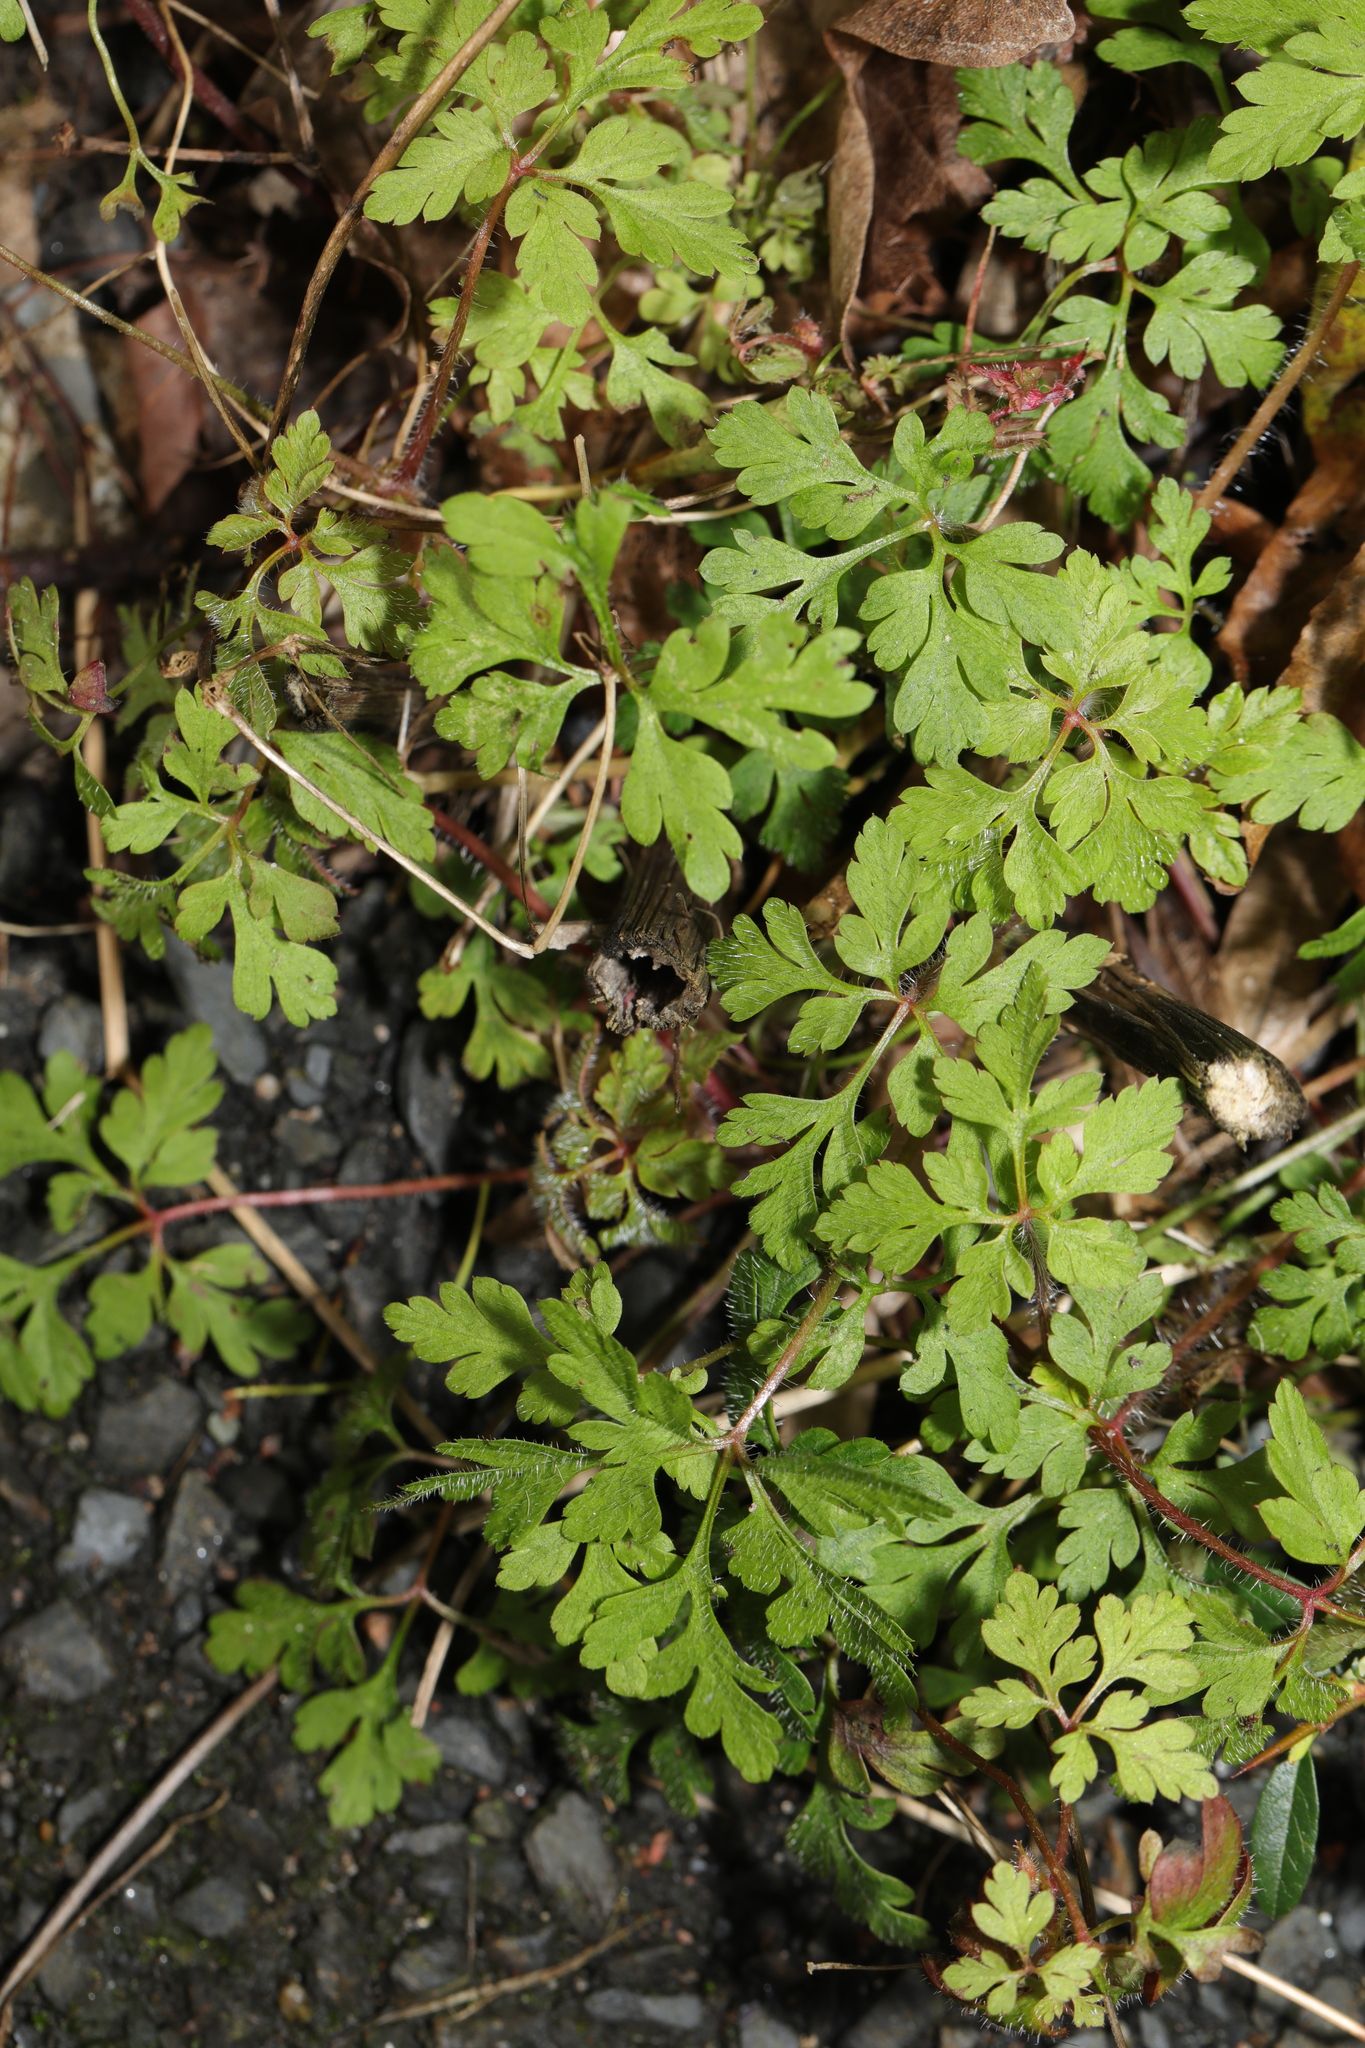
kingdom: Plantae
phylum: Tracheophyta
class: Magnoliopsida
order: Geraniales
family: Geraniaceae
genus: Geranium
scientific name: Geranium robertianum
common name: Herb-robert
